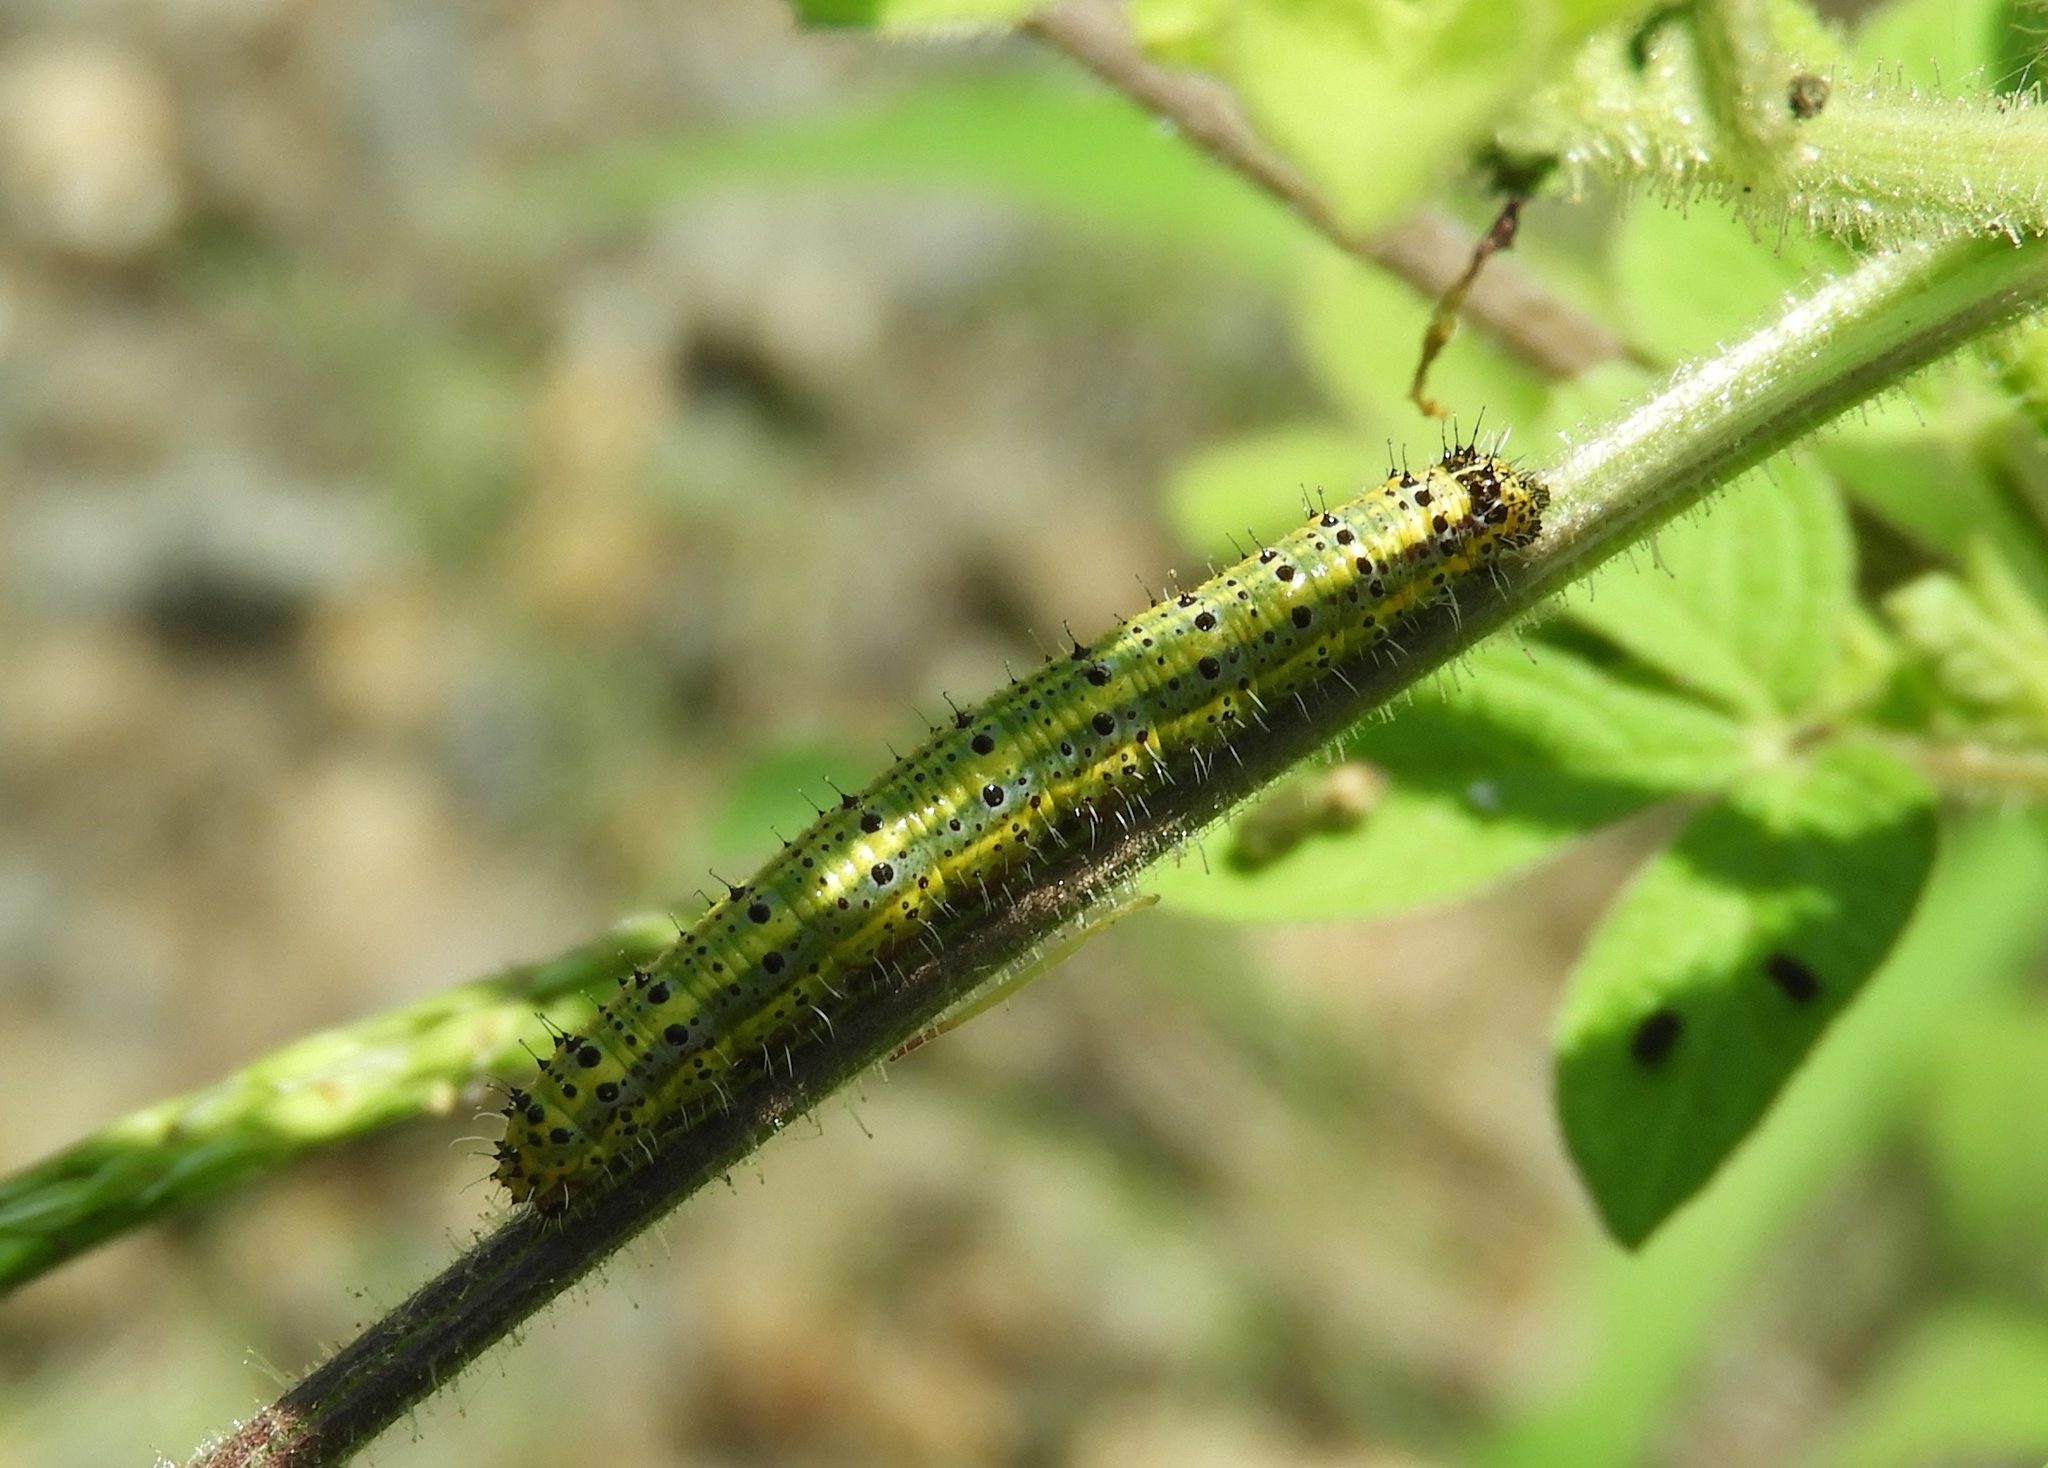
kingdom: Animalia
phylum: Arthropoda
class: Insecta
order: Lepidoptera
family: Pieridae
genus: Ascia
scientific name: Ascia monuste
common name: Great southern white
